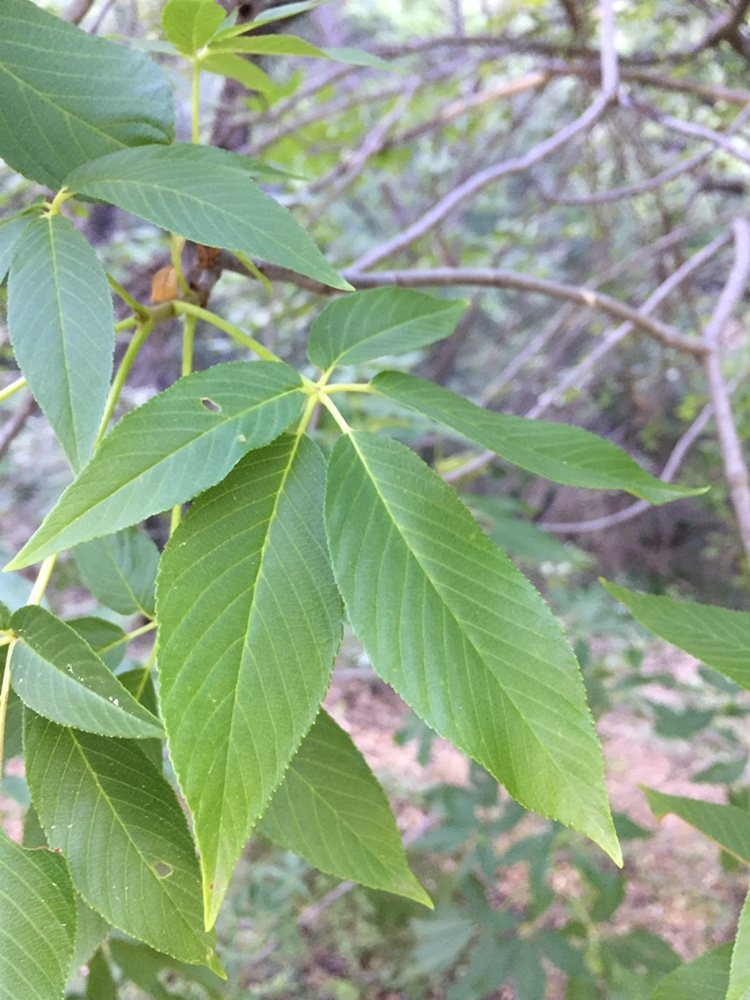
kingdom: Plantae
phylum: Tracheophyta
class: Magnoliopsida
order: Sapindales
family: Sapindaceae
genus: Aesculus
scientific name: Aesculus californica
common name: California buckeye
